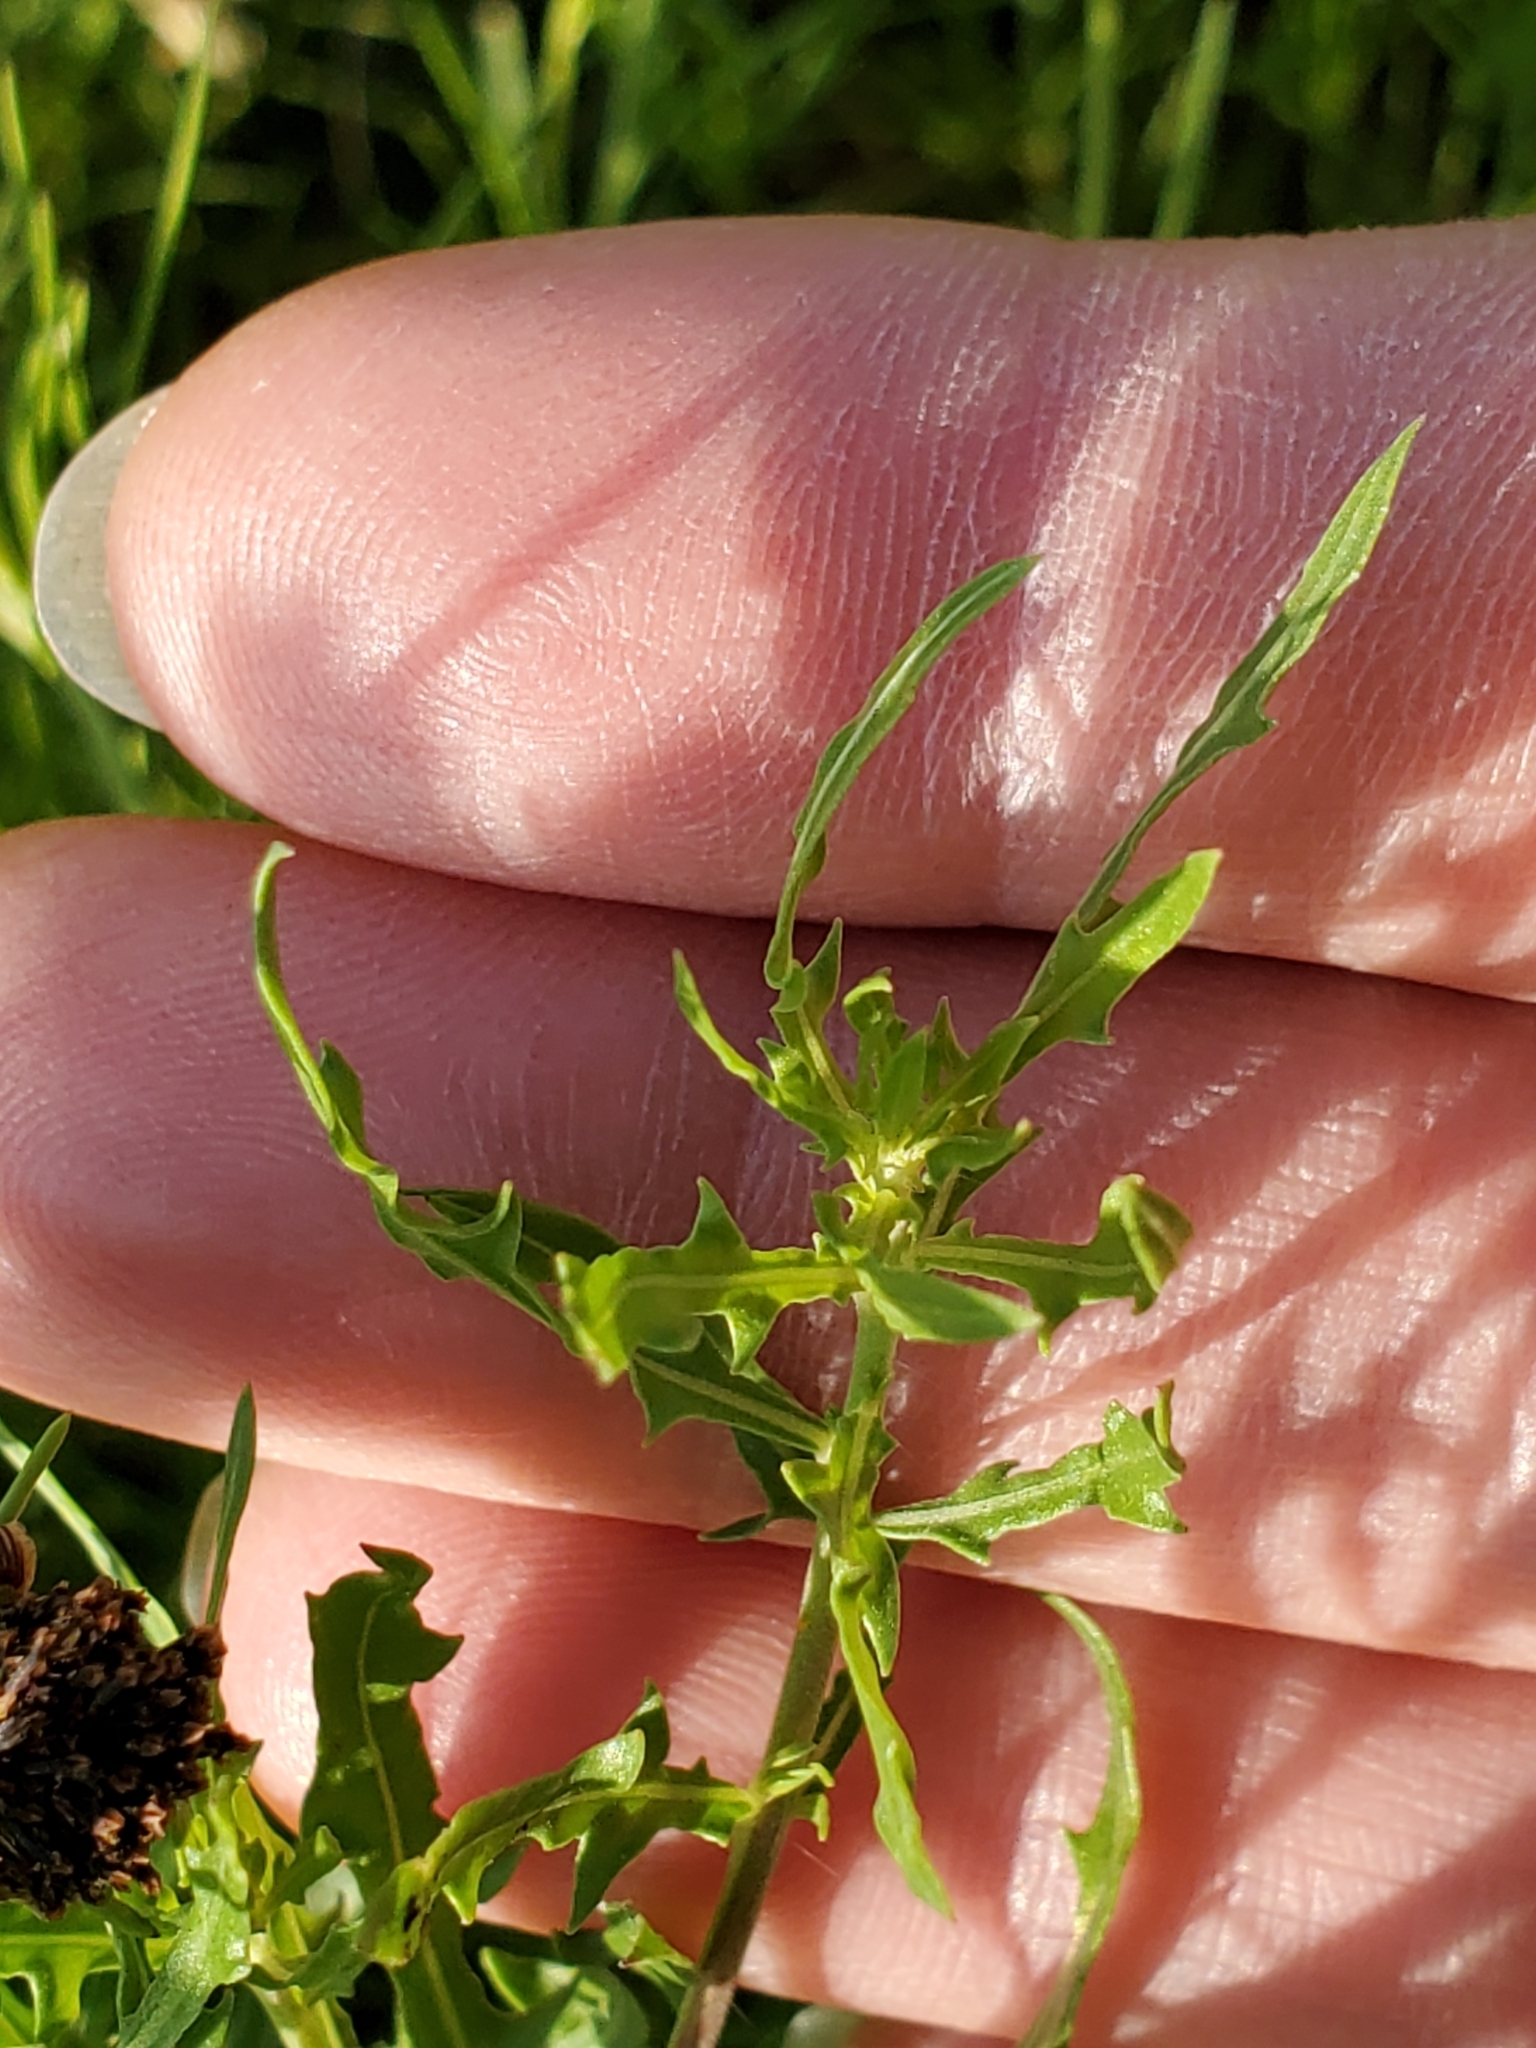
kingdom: Plantae
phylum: Tracheophyta
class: Magnoliopsida
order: Myrtales
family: Onagraceae
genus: Oenothera
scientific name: Oenothera suffrutescens
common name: Scarlet beeblossom
